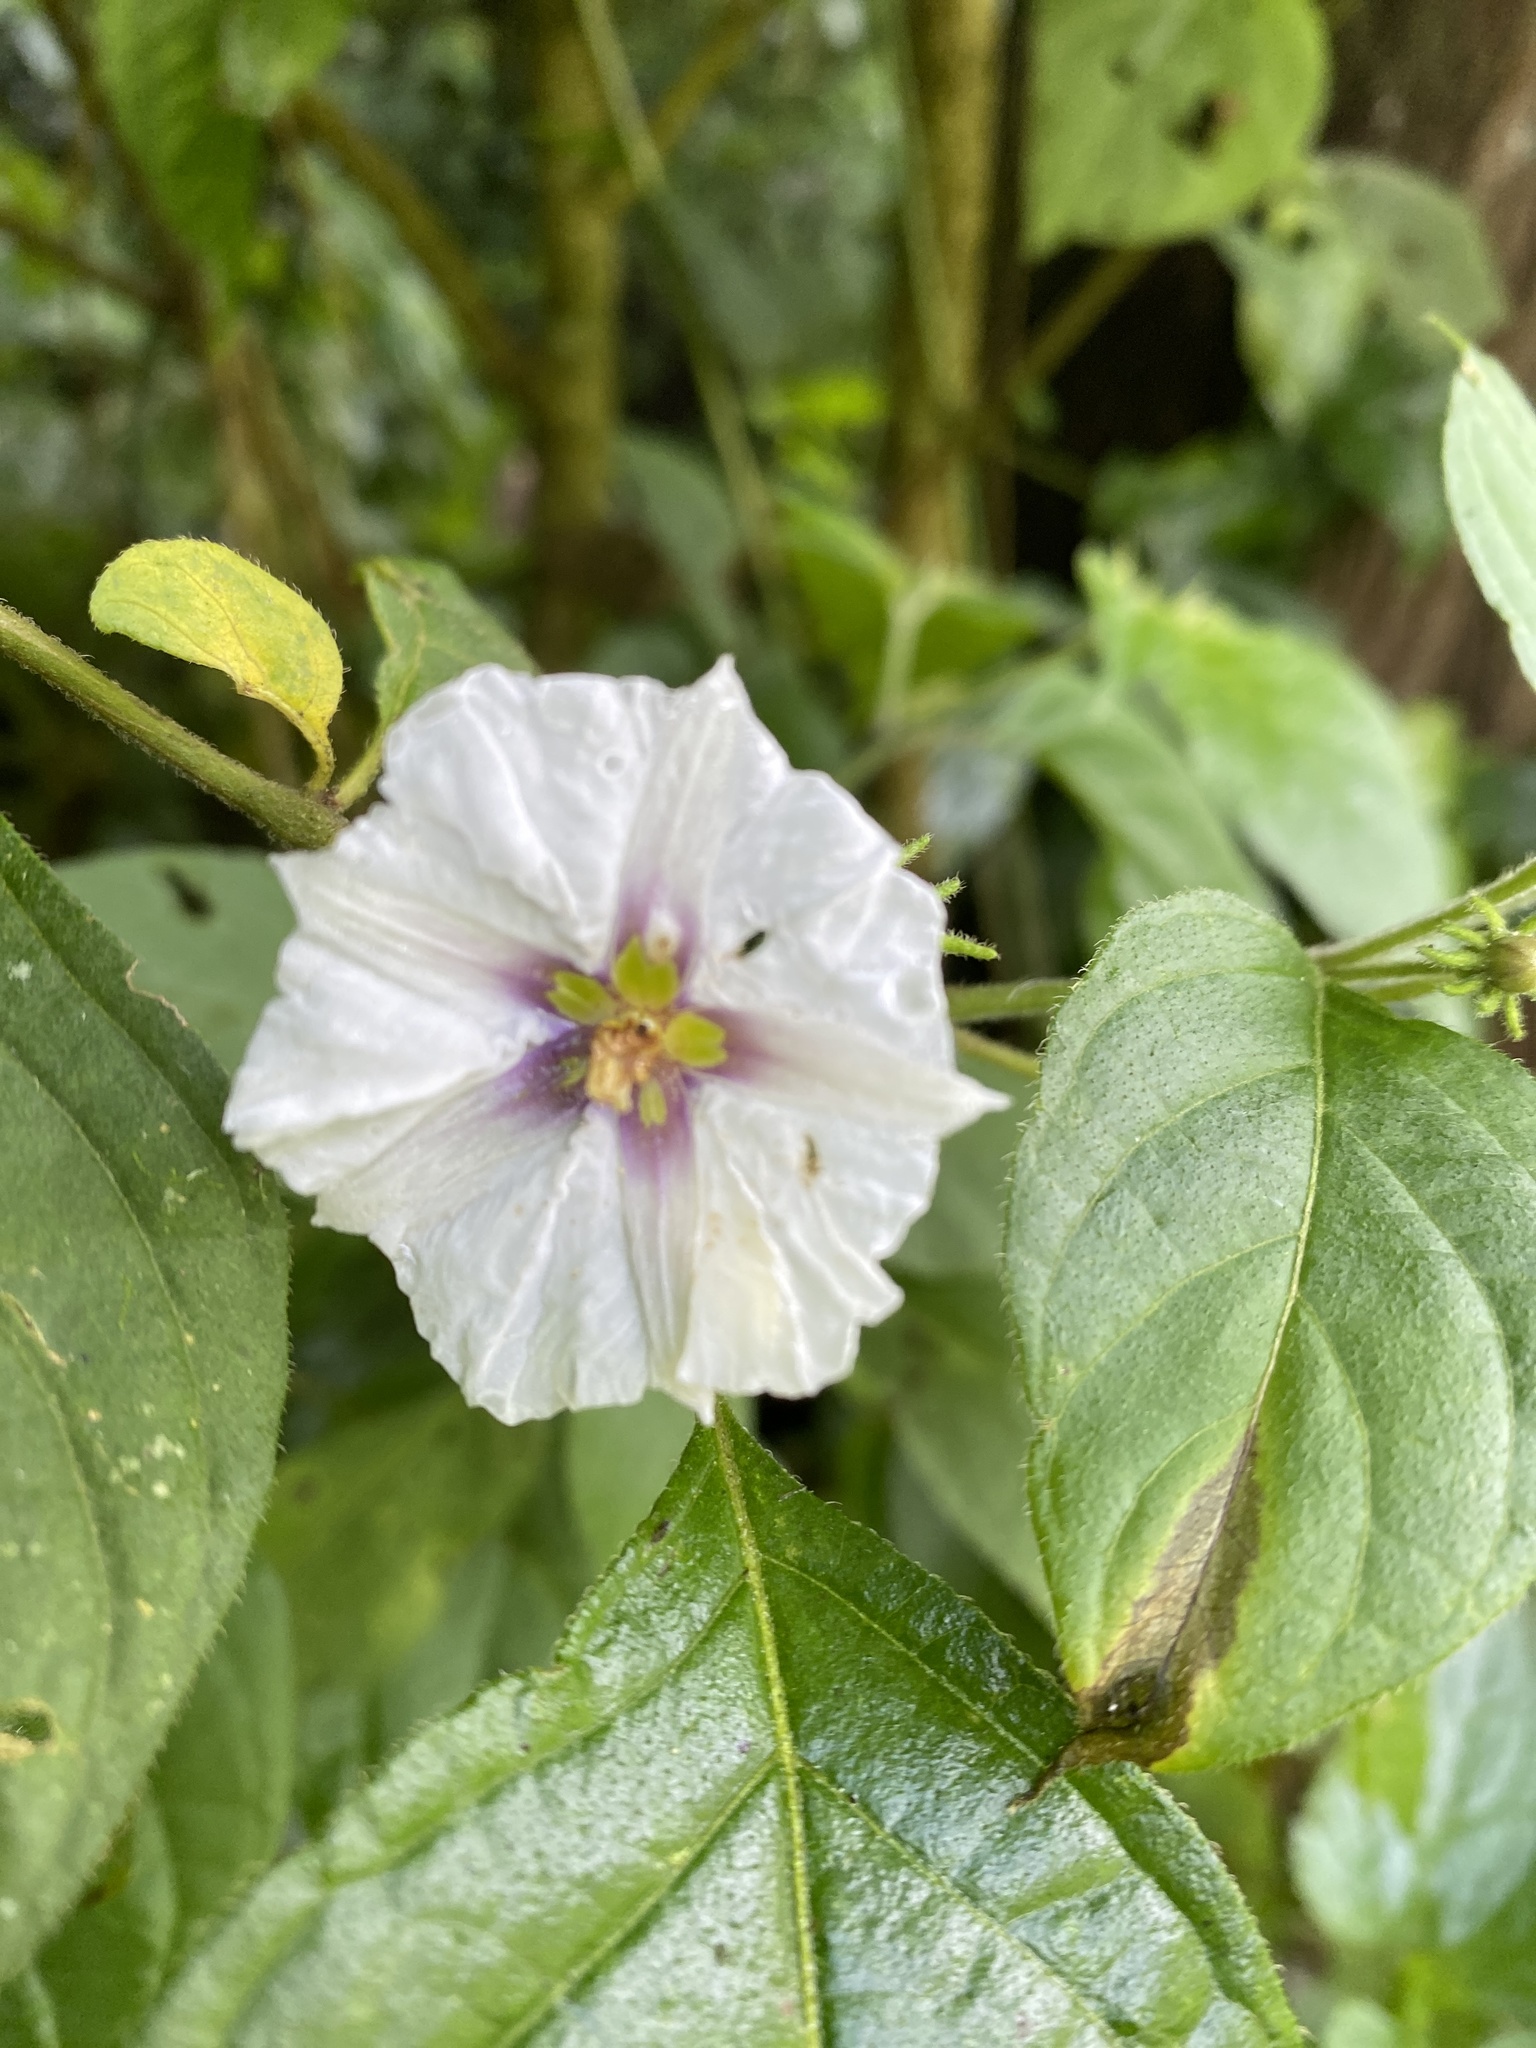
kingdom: Plantae
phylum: Tracheophyta
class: Magnoliopsida
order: Solanales
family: Solanaceae
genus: Lycianthes
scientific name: Lycianthes tricolor
